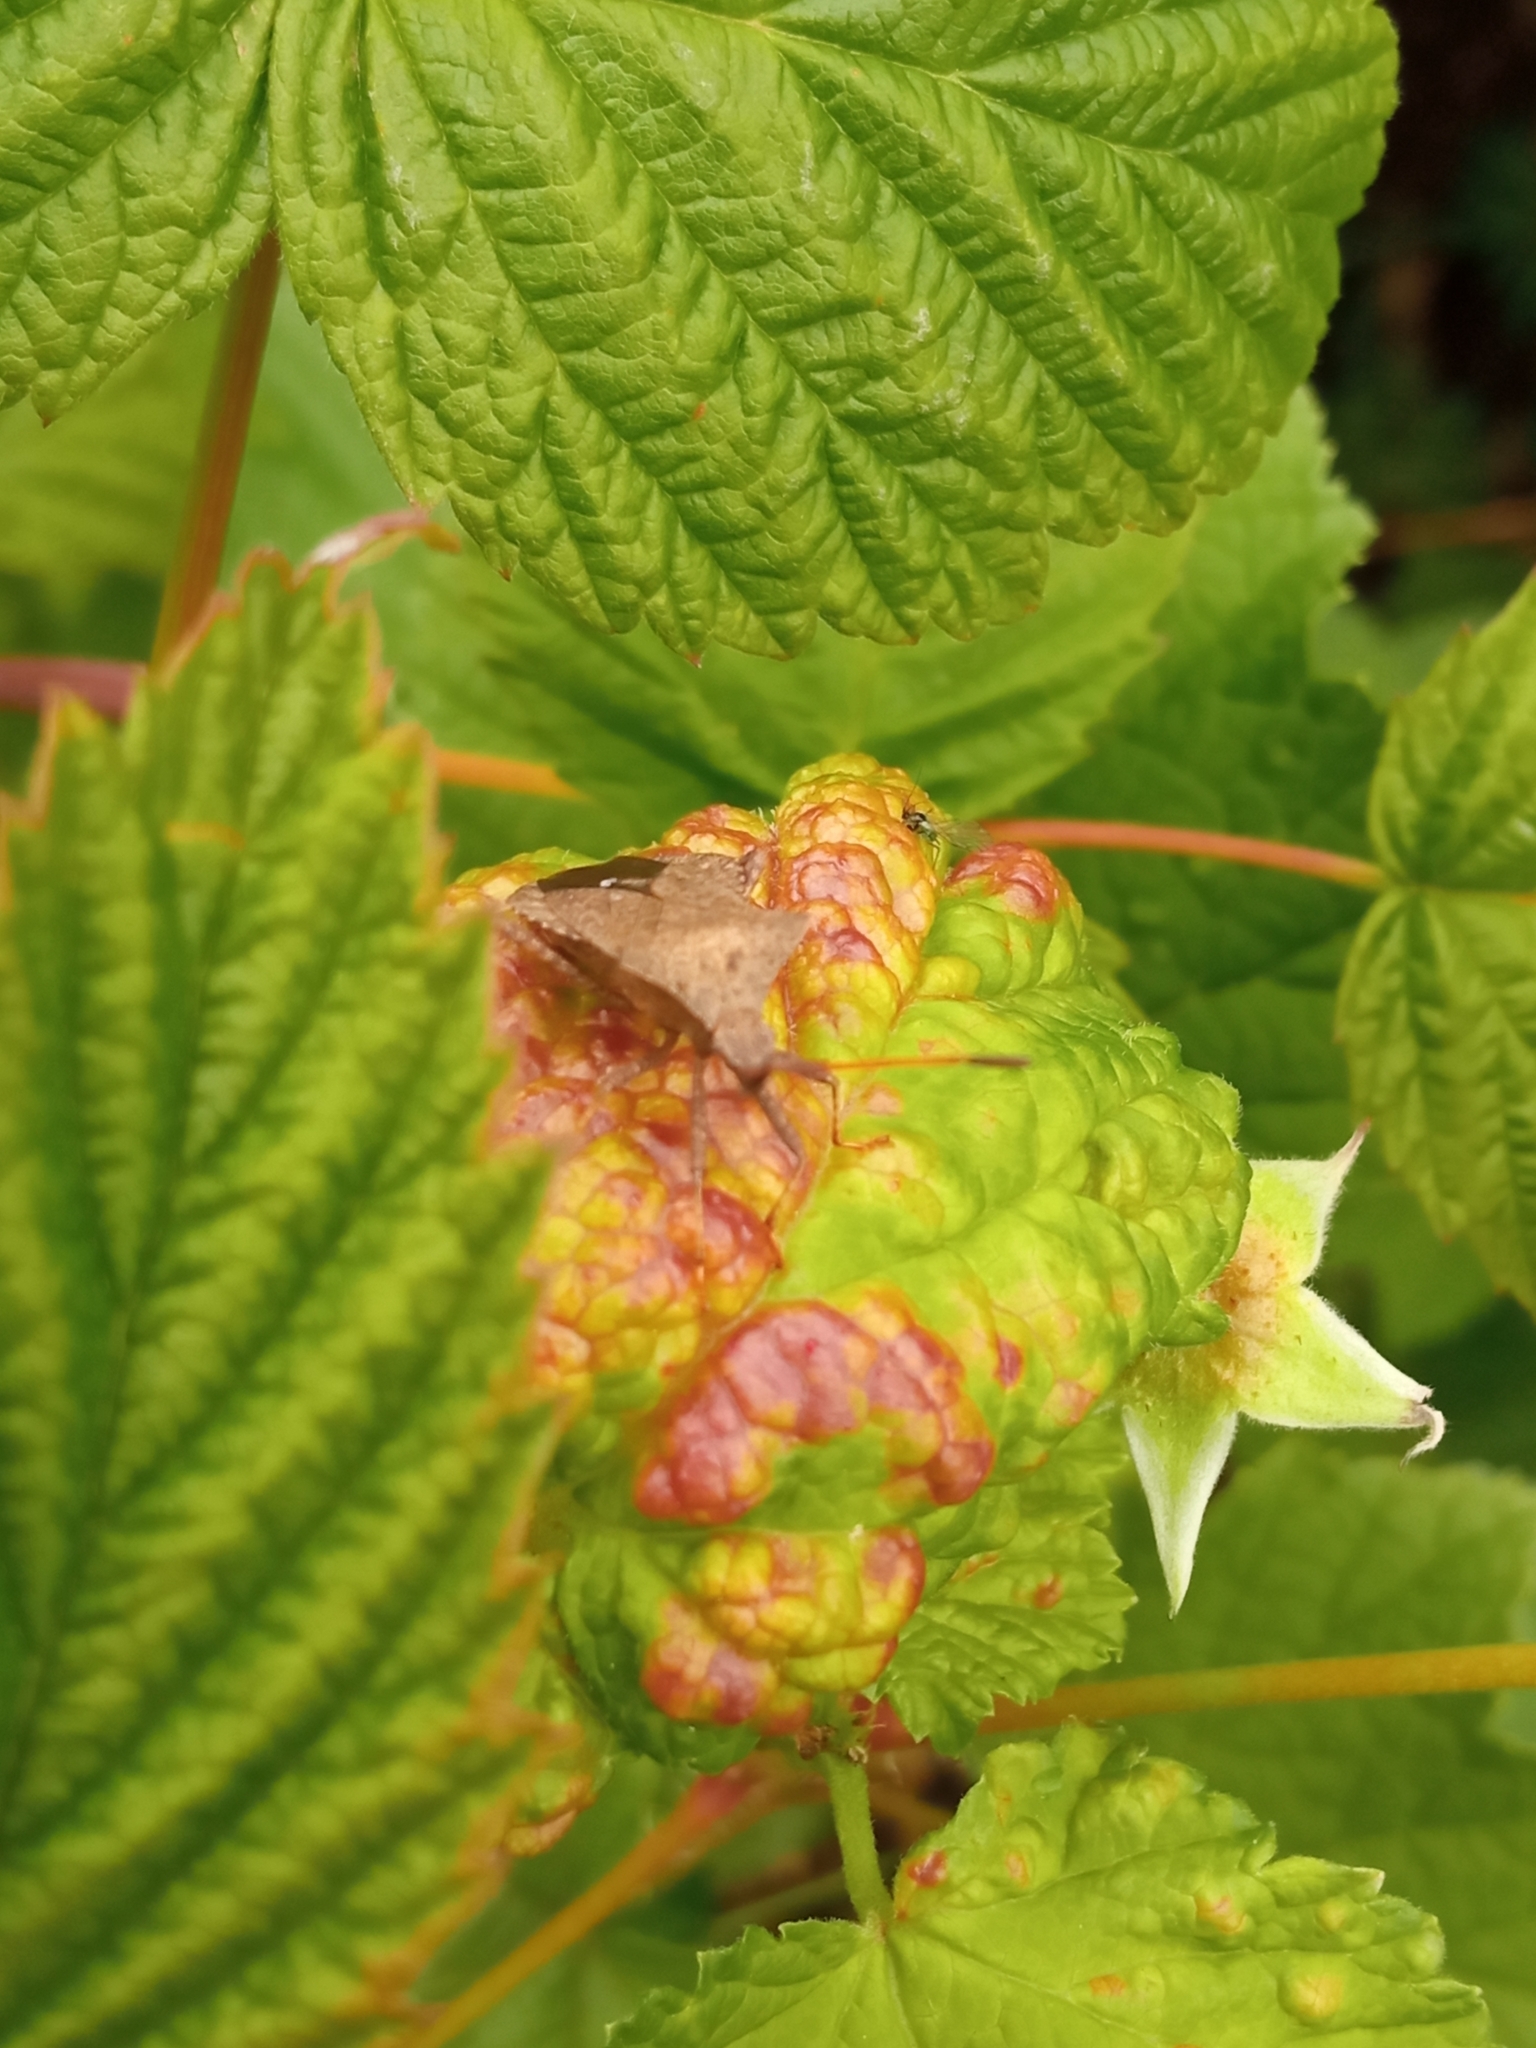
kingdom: Animalia
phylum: Arthropoda
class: Insecta
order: Hemiptera
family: Coreidae
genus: Coreus
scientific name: Coreus marginatus
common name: Dock bug
